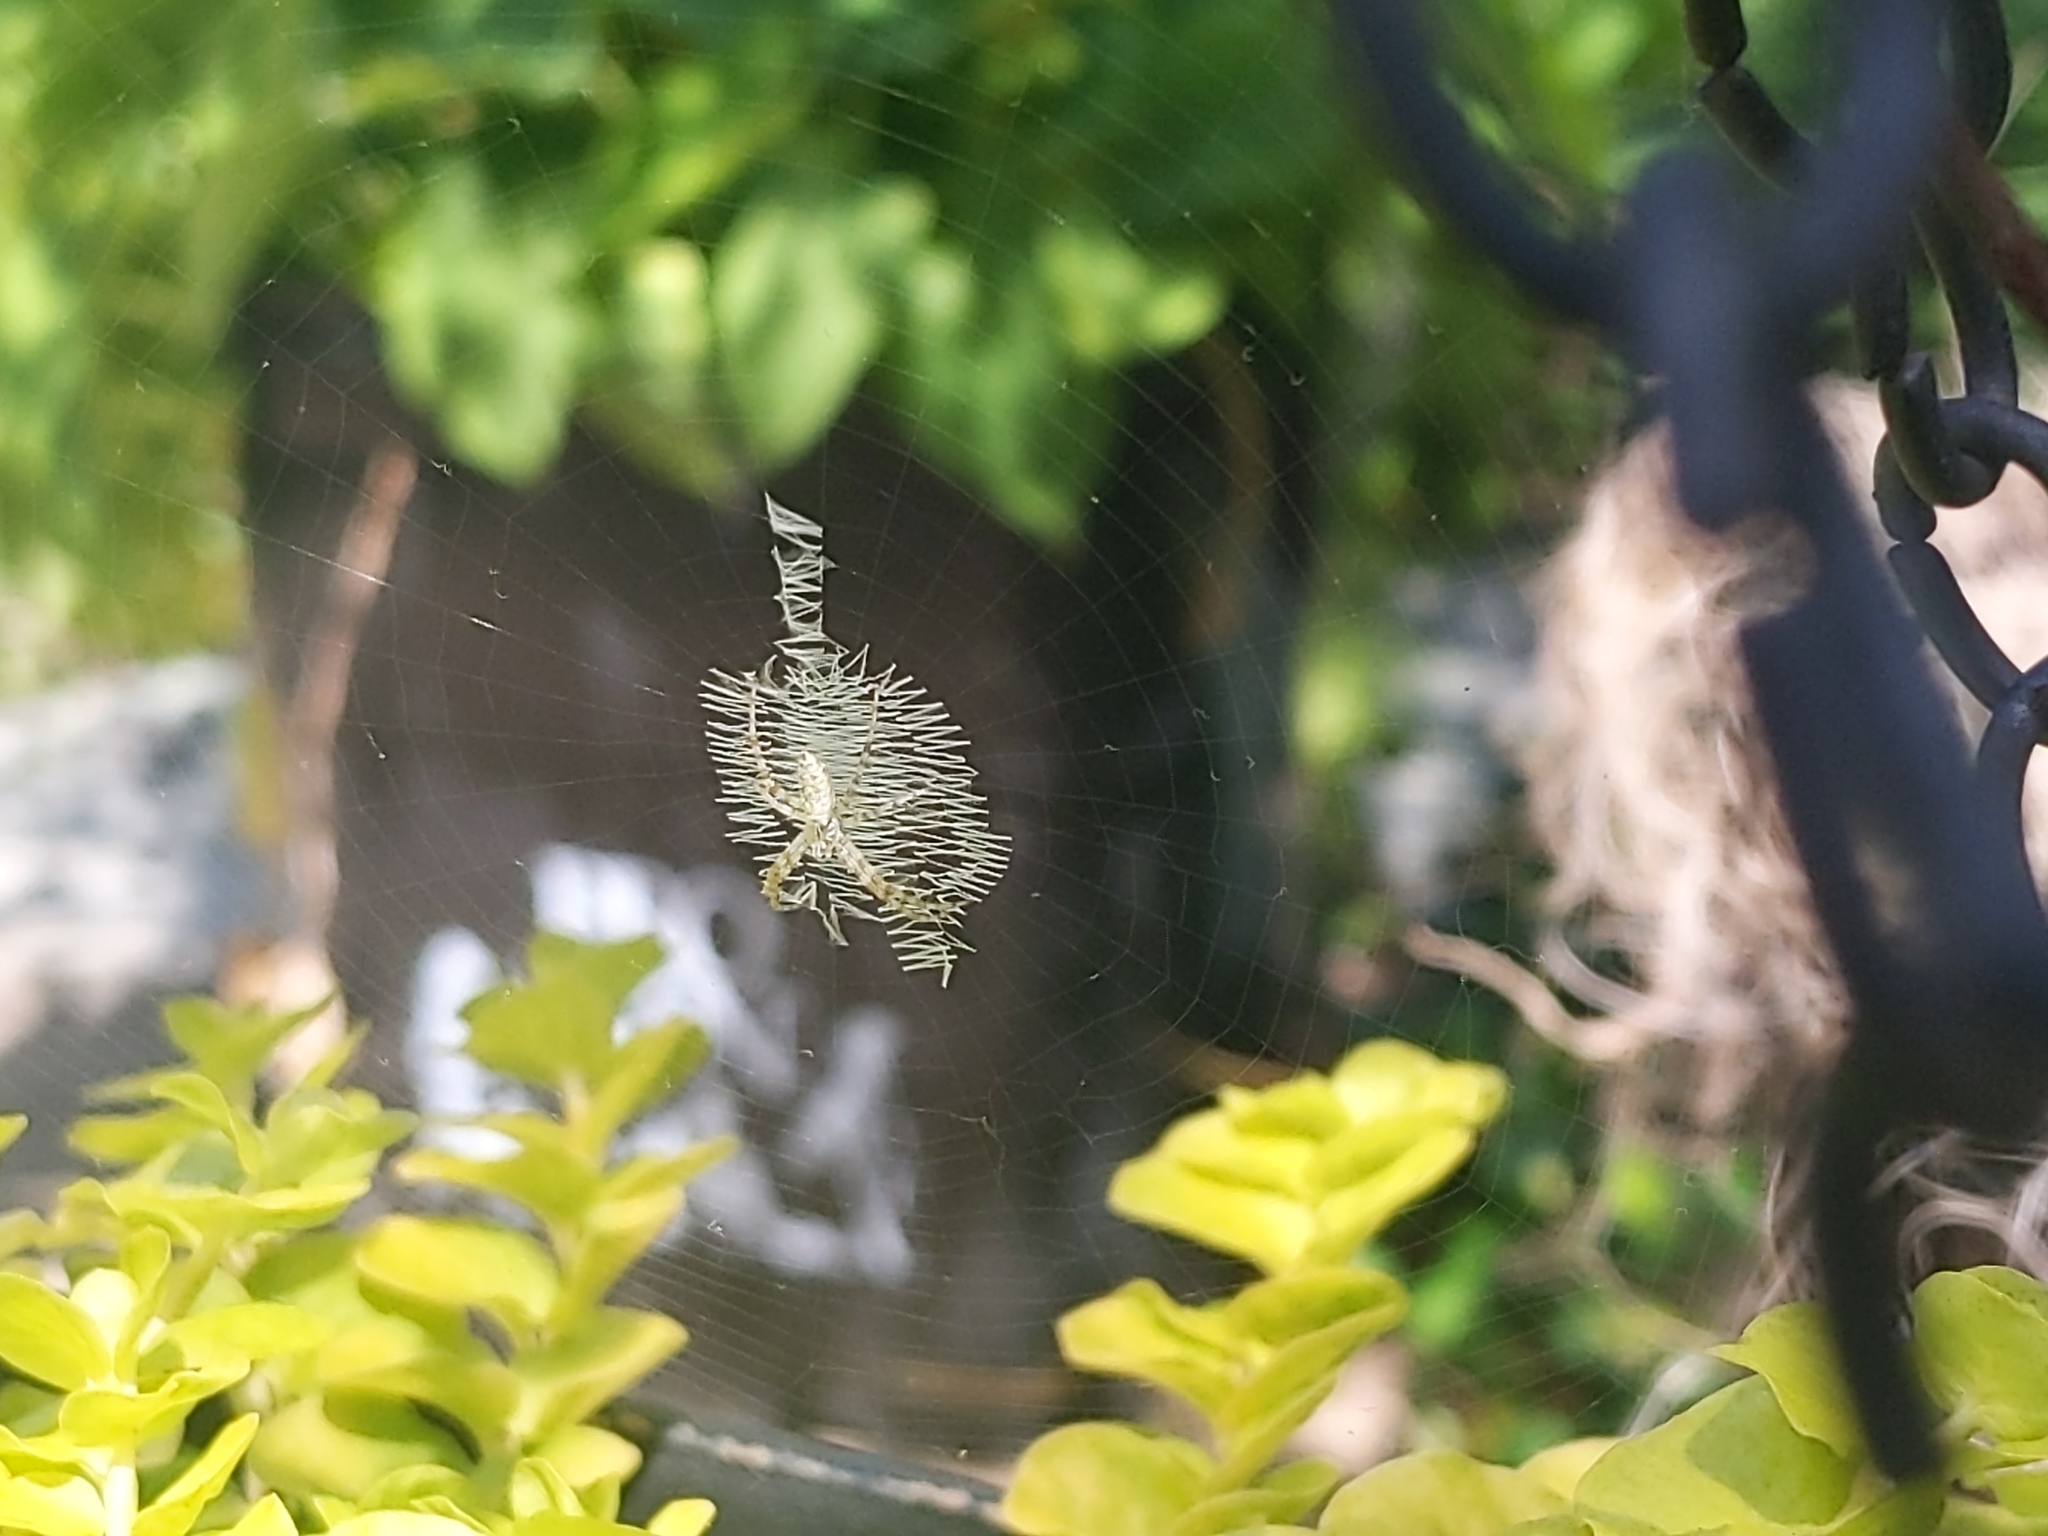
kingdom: Animalia
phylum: Arthropoda
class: Arachnida
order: Araneae
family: Araneidae
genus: Argiope
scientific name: Argiope aurantia
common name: Orb weavers
